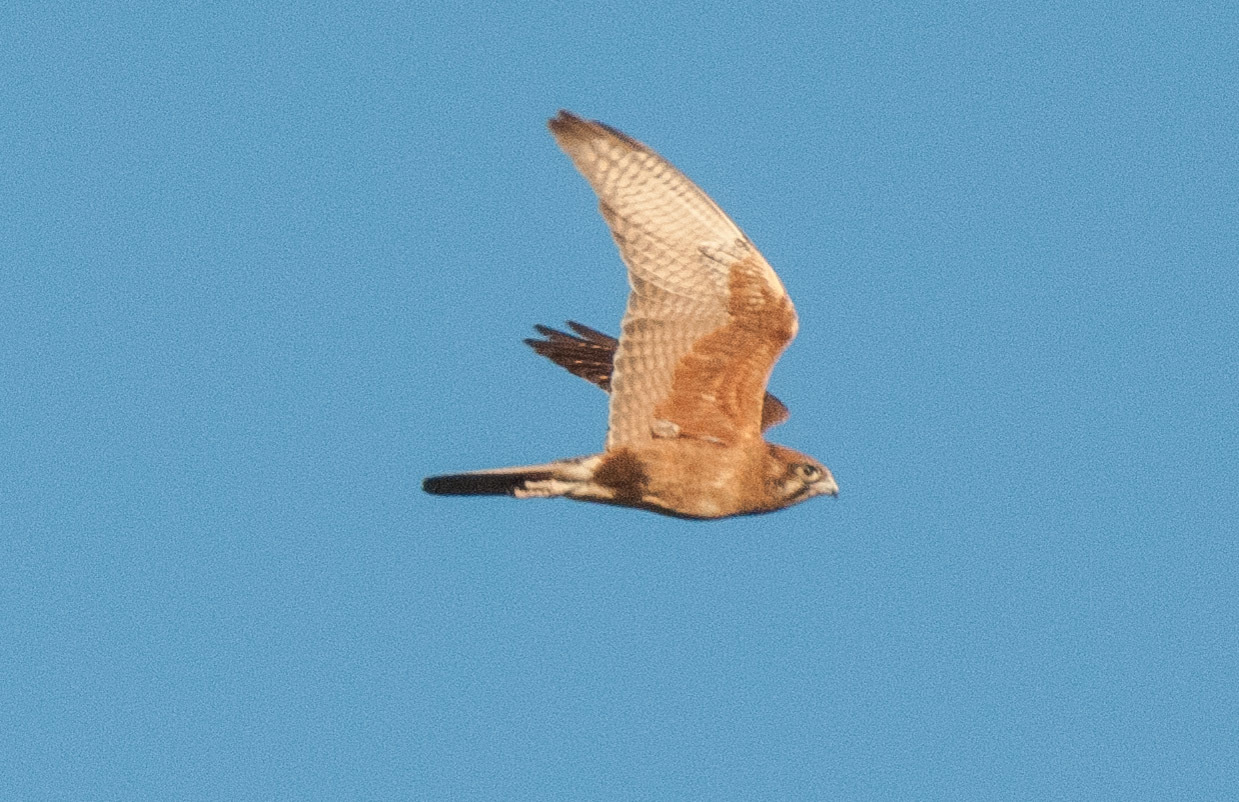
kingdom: Animalia
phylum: Chordata
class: Aves
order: Falconiformes
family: Falconidae
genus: Falco
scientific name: Falco berigora
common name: Brown falcon
